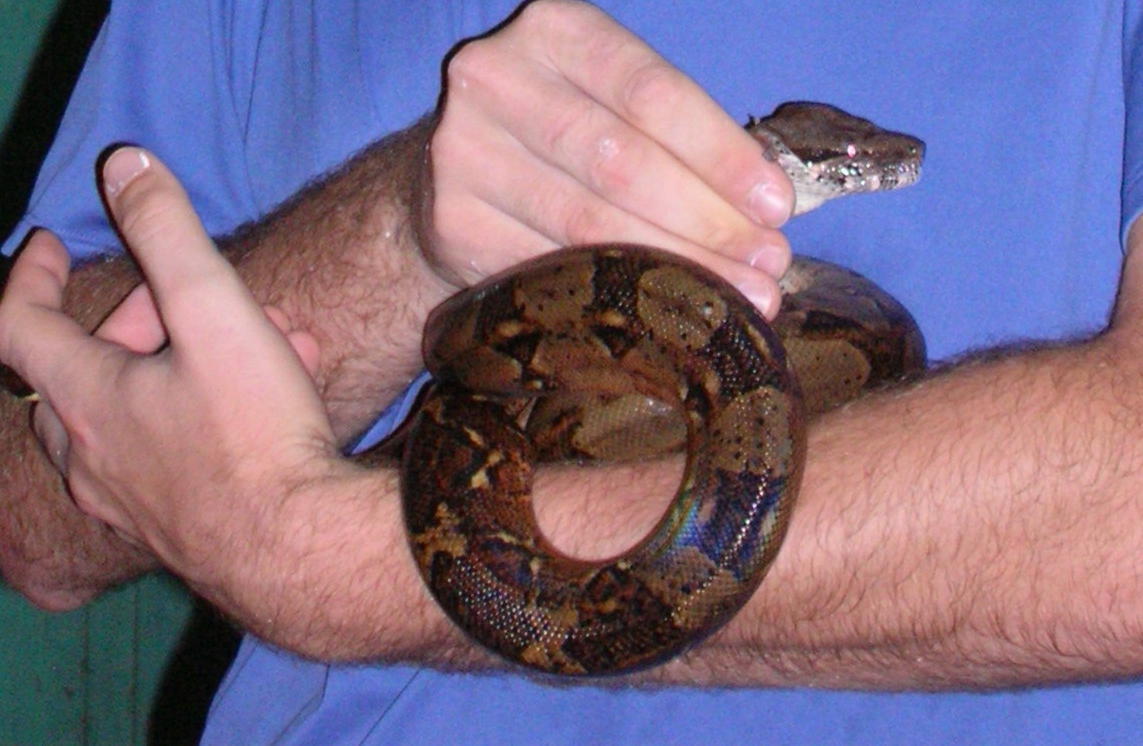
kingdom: Animalia
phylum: Chordata
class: Squamata
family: Boidae
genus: Boa
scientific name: Boa imperator
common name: Central american boa
